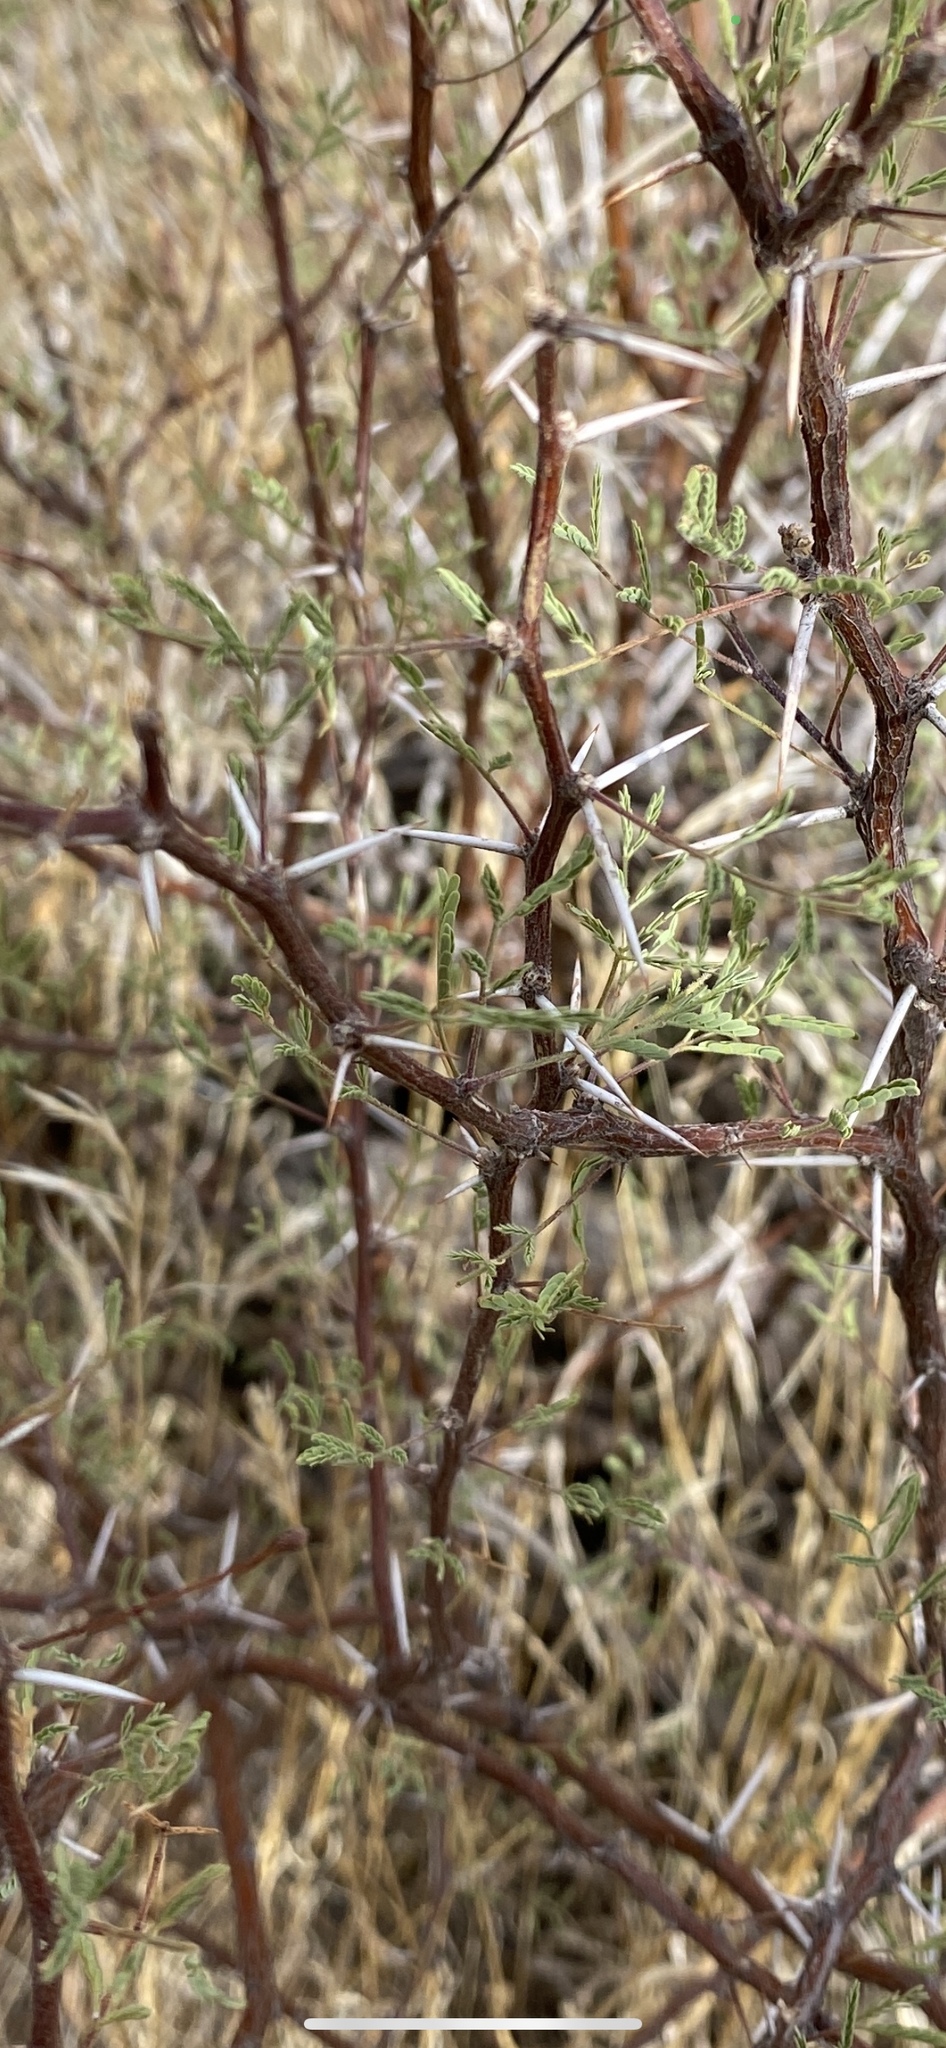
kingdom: Plantae
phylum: Tracheophyta
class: Magnoliopsida
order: Fabales
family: Fabaceae
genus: Vachellia
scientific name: Vachellia constricta
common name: Mescat acacia
